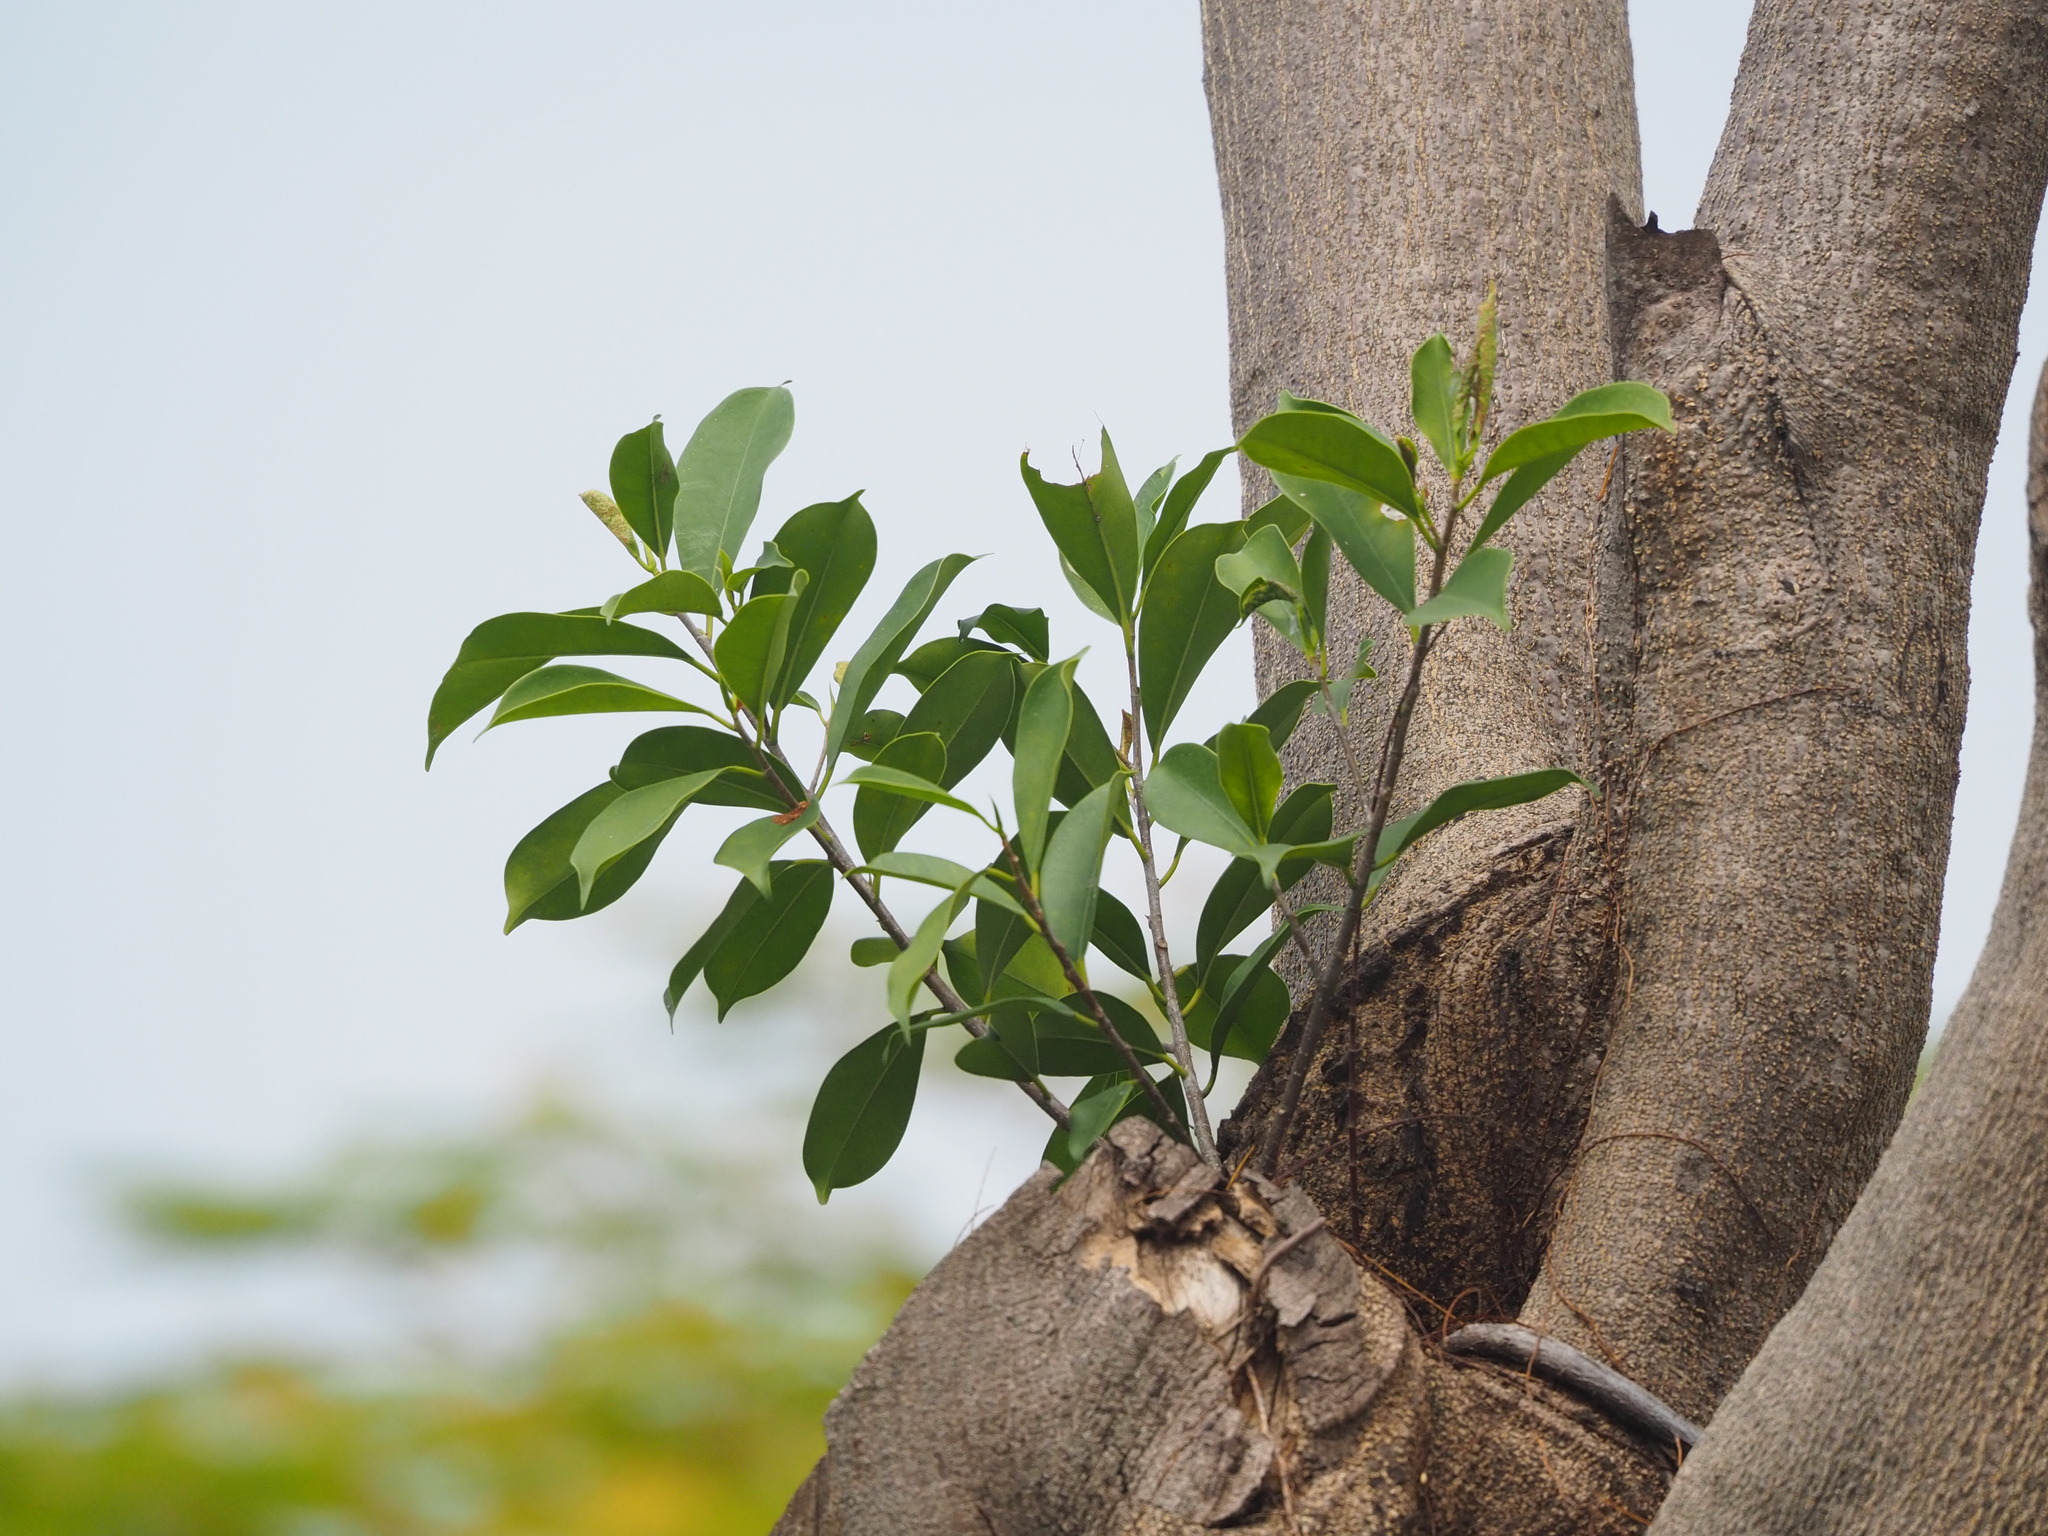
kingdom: Plantae
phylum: Tracheophyta
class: Magnoliopsida
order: Rosales
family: Moraceae
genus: Ficus
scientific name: Ficus microcarpa
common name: Chinese banyan
